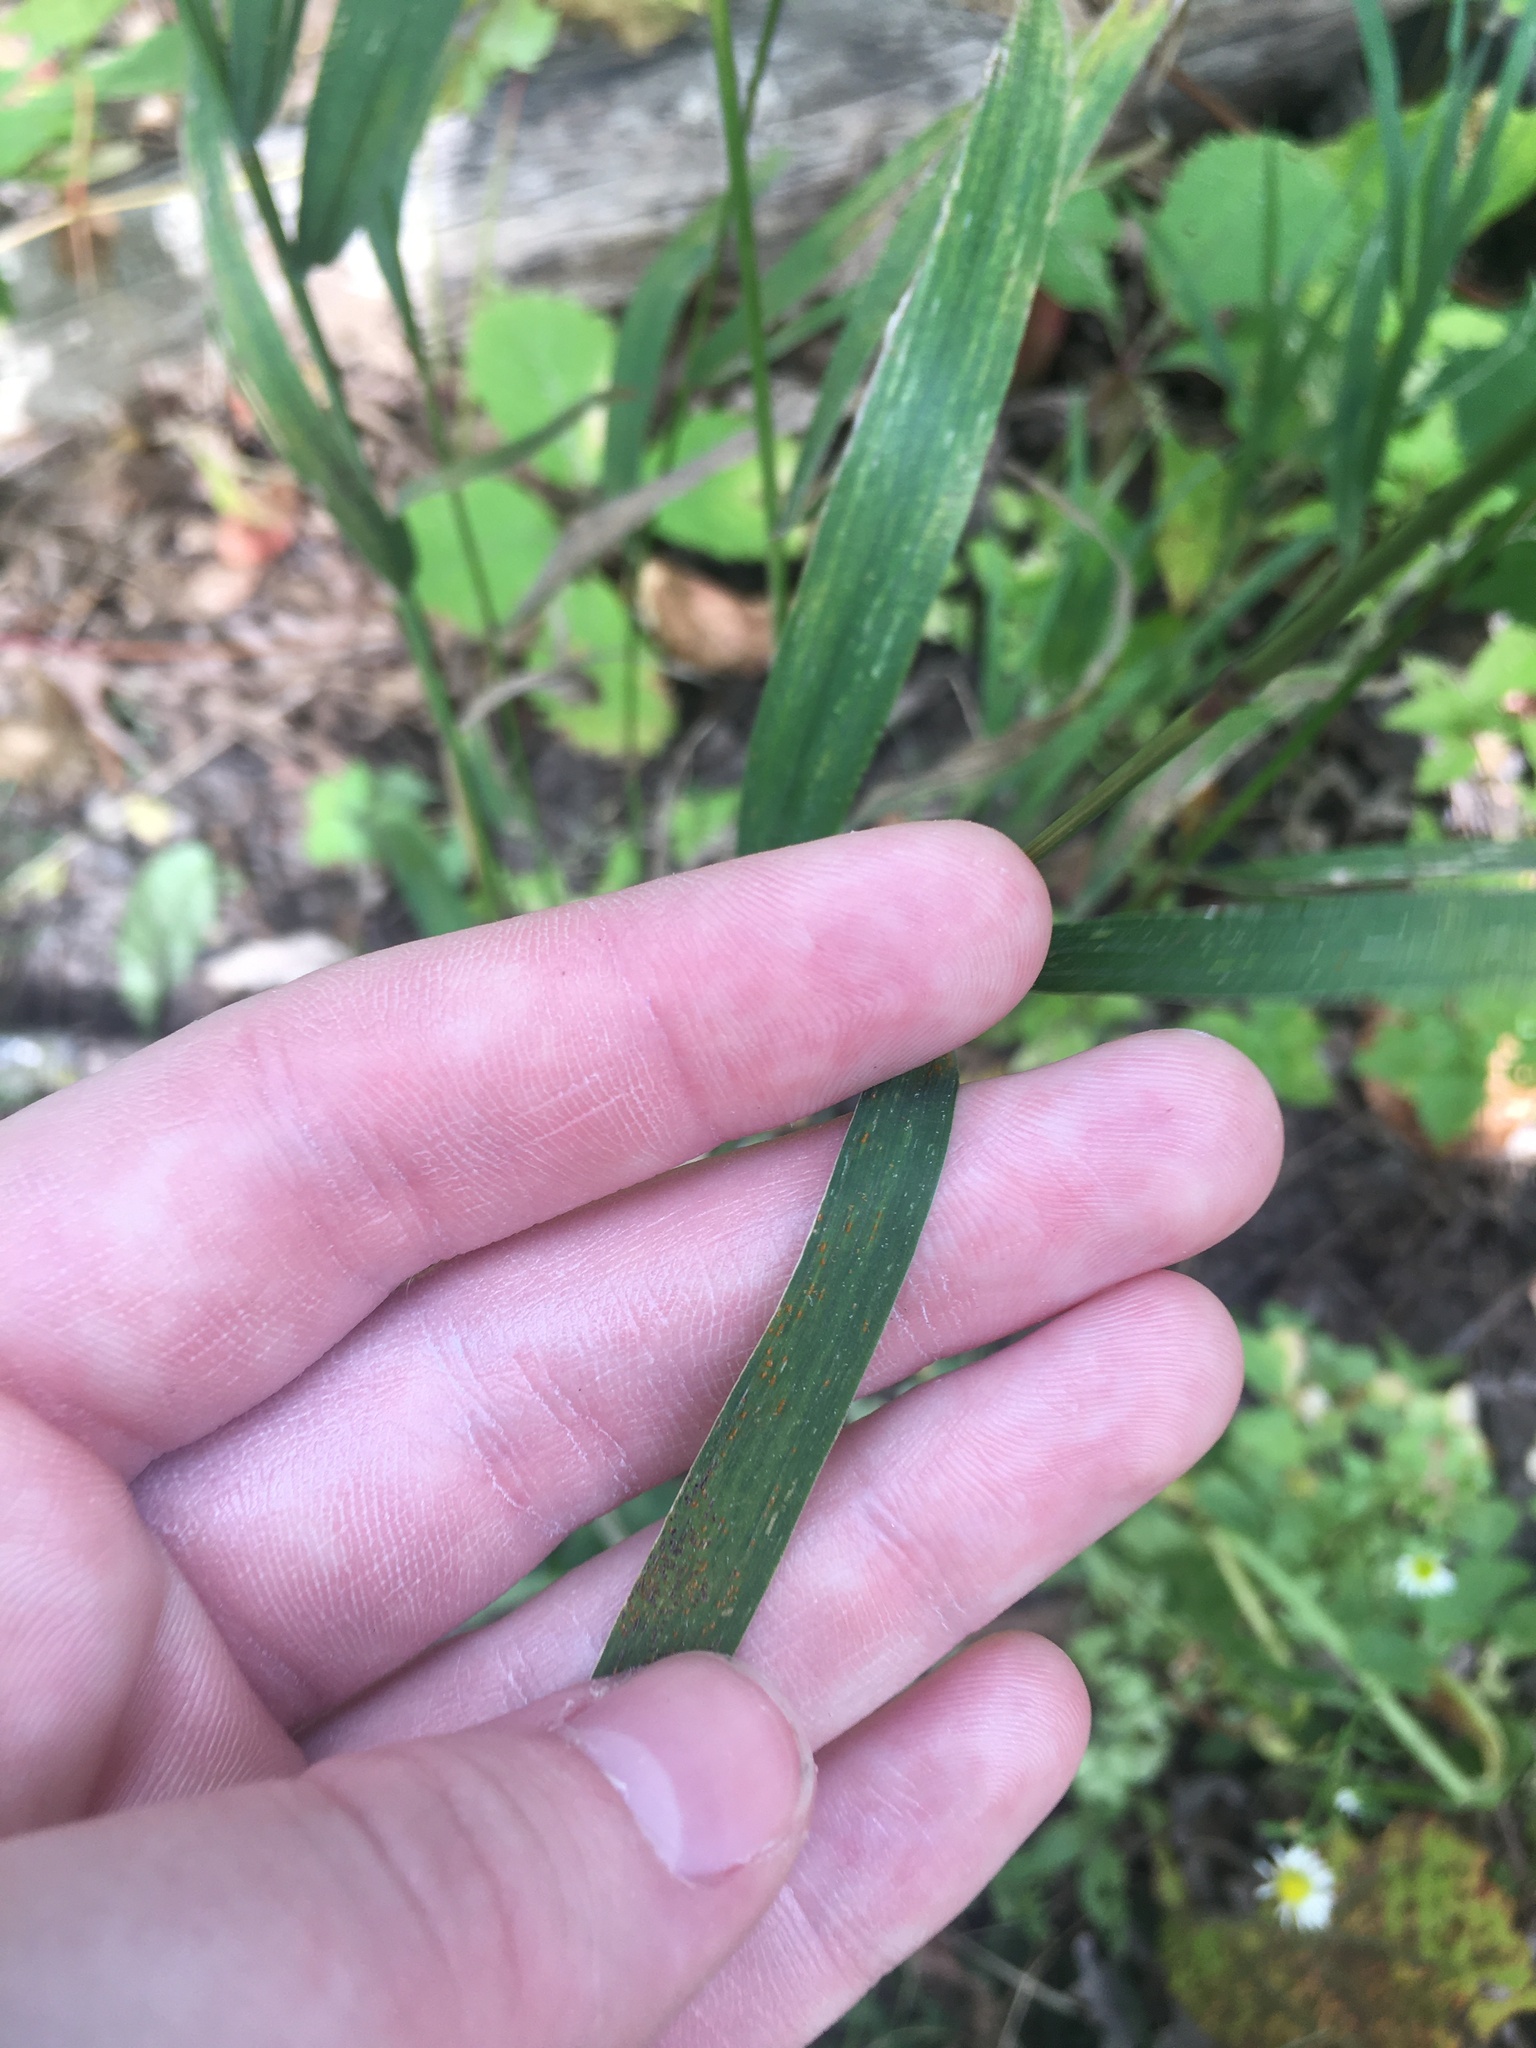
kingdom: Plantae
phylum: Tracheophyta
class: Liliopsida
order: Poales
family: Poaceae
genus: Elymus
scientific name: Elymus hystrix
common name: Bottlebrush grass
